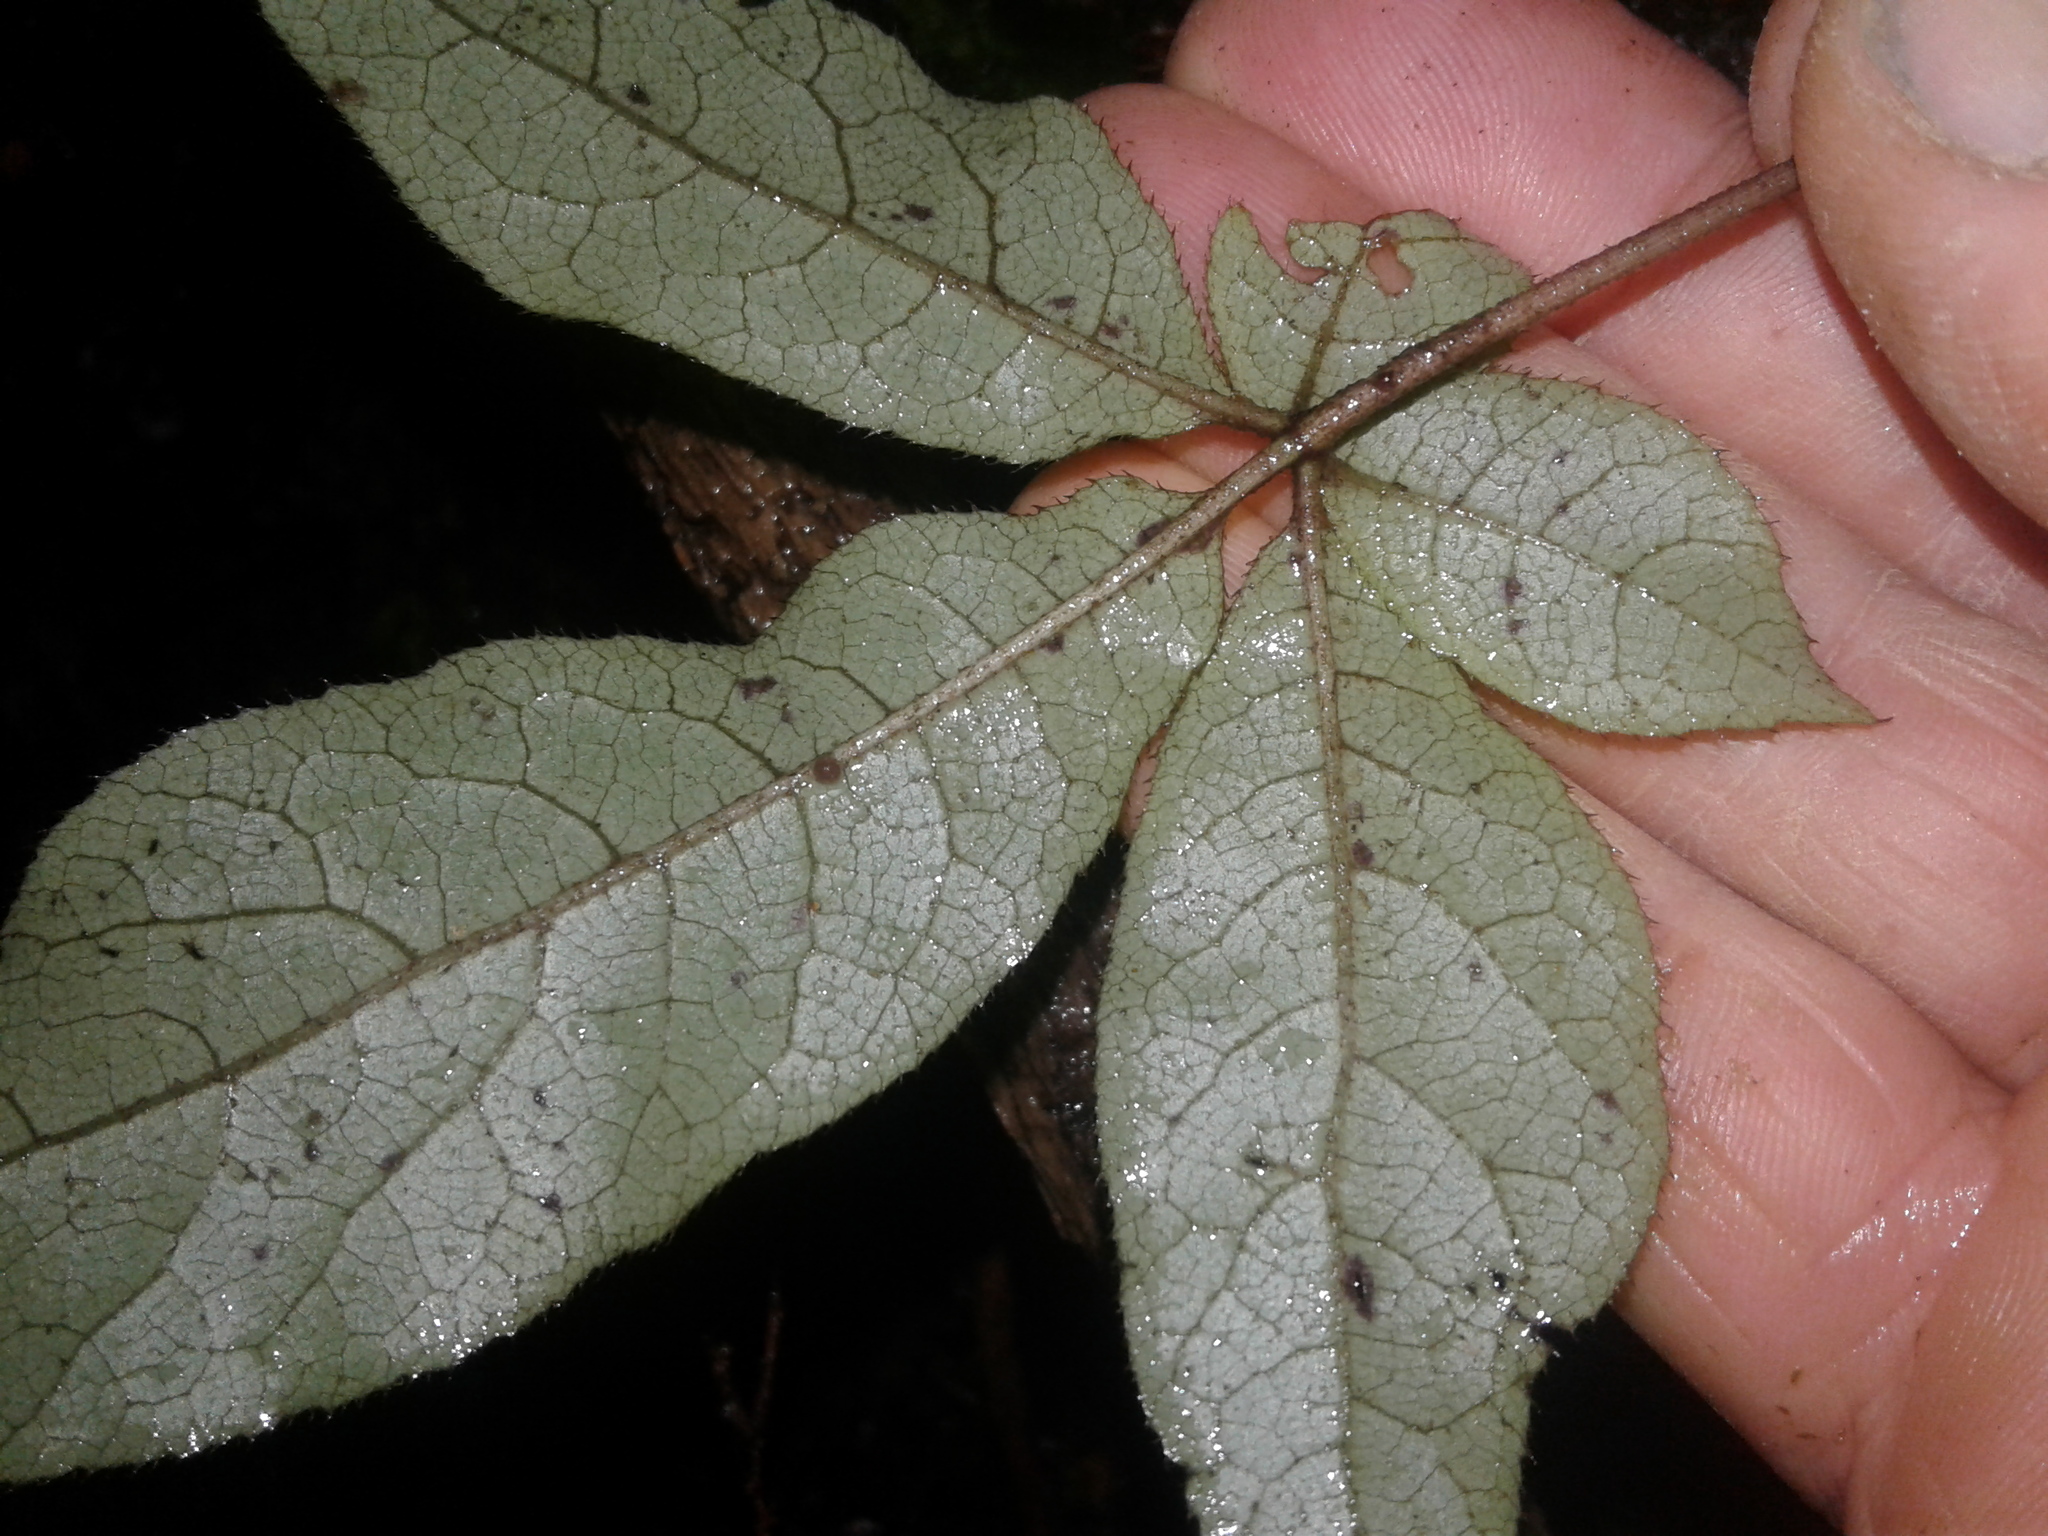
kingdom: Plantae
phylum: Tracheophyta
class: Magnoliopsida
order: Apiales
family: Araliaceae
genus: Schefflera
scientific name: Schefflera digitata
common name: Pate
